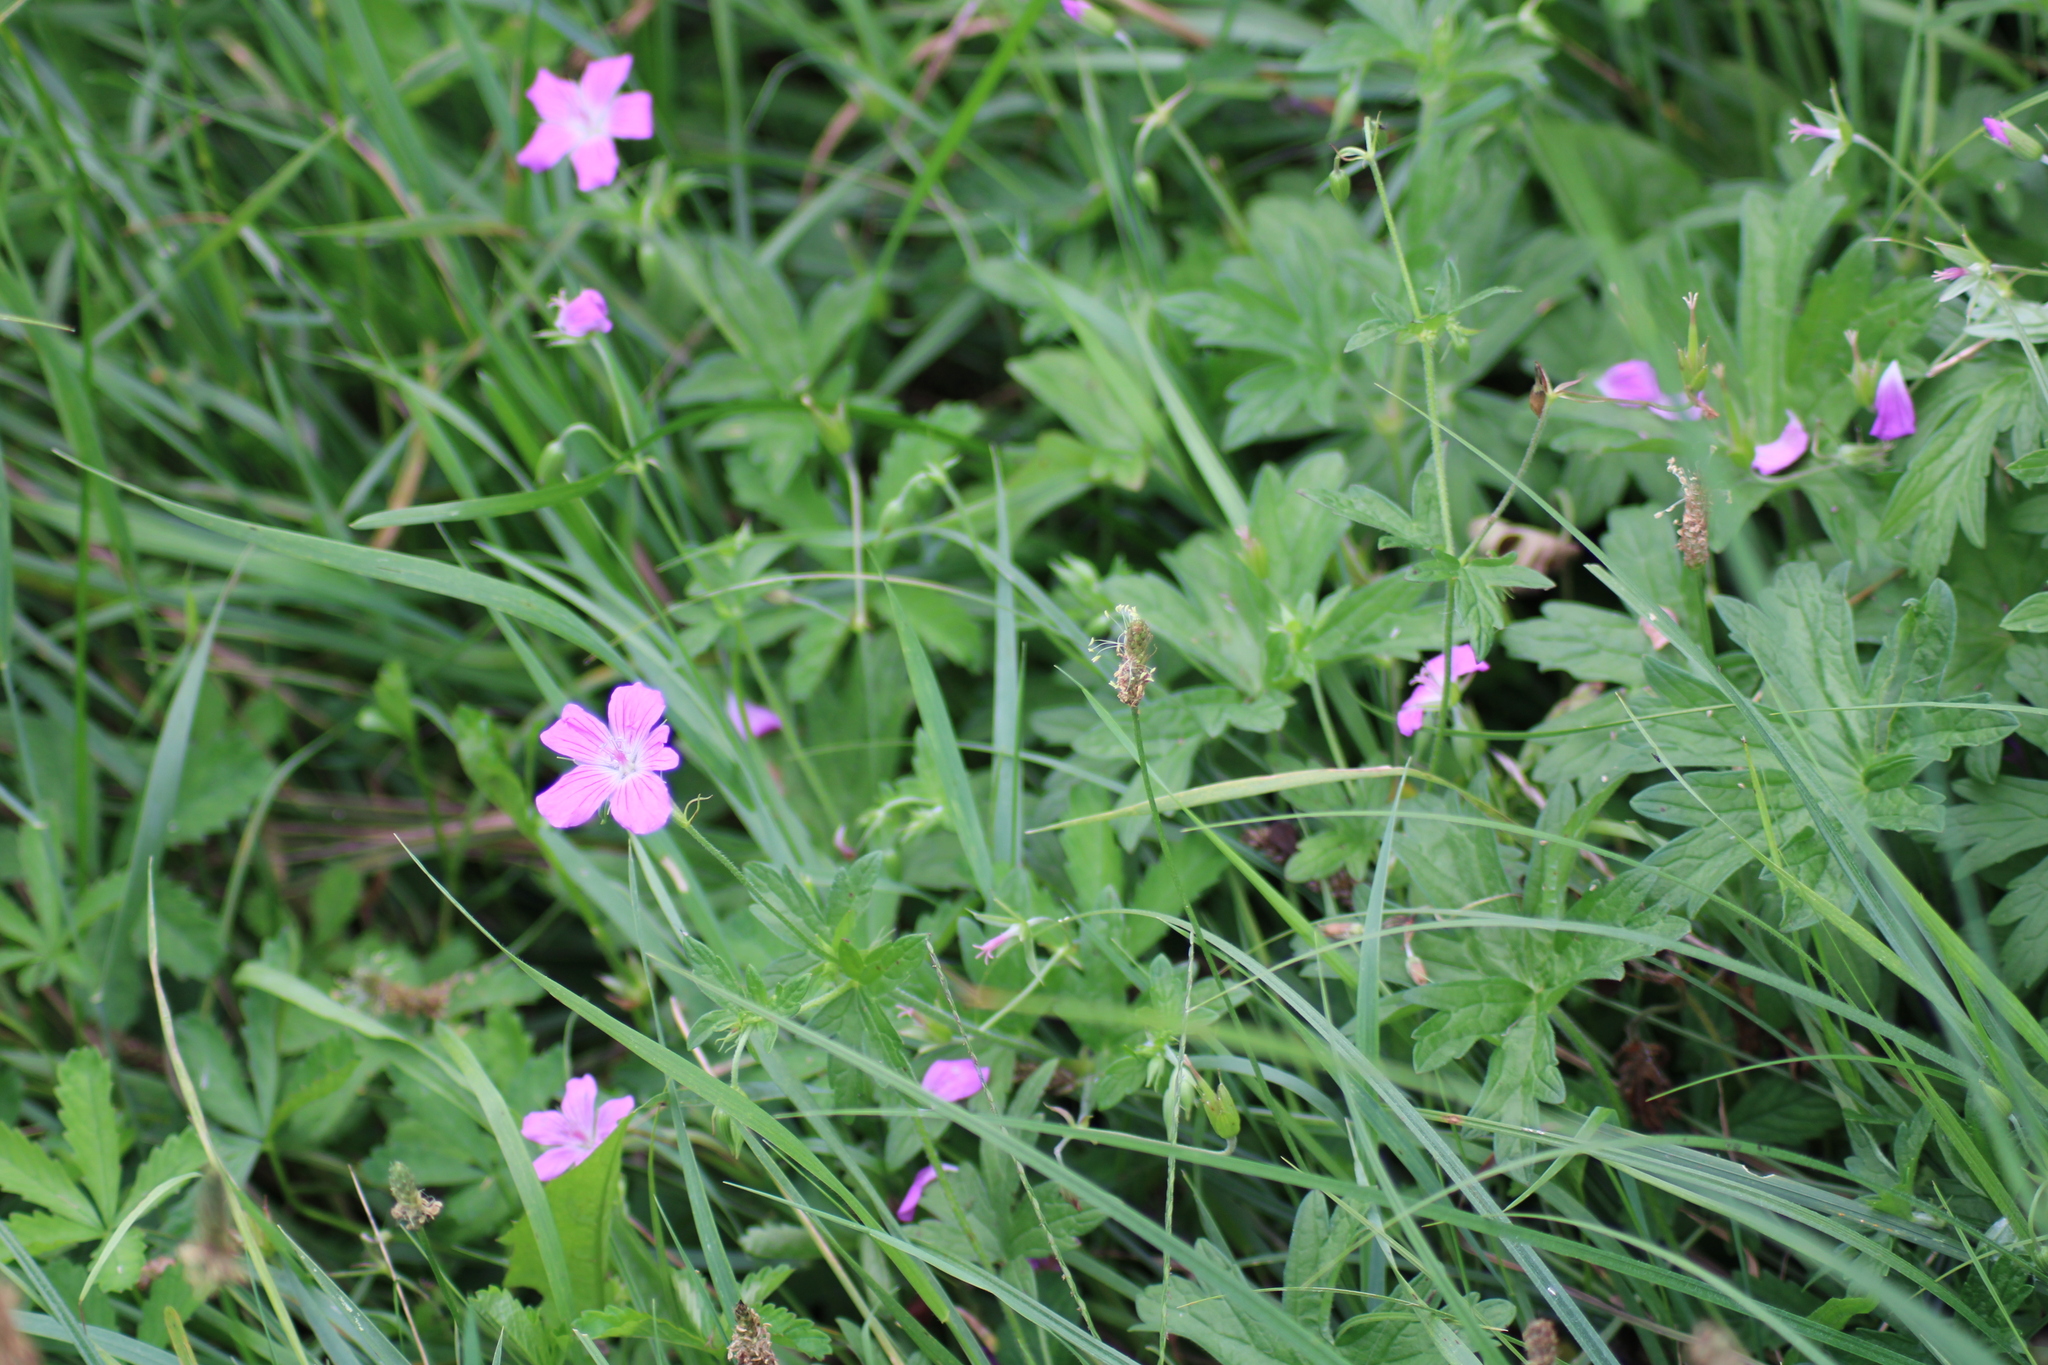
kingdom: Plantae
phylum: Tracheophyta
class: Magnoliopsida
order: Geraniales
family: Geraniaceae
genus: Geranium
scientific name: Geranium palustre
